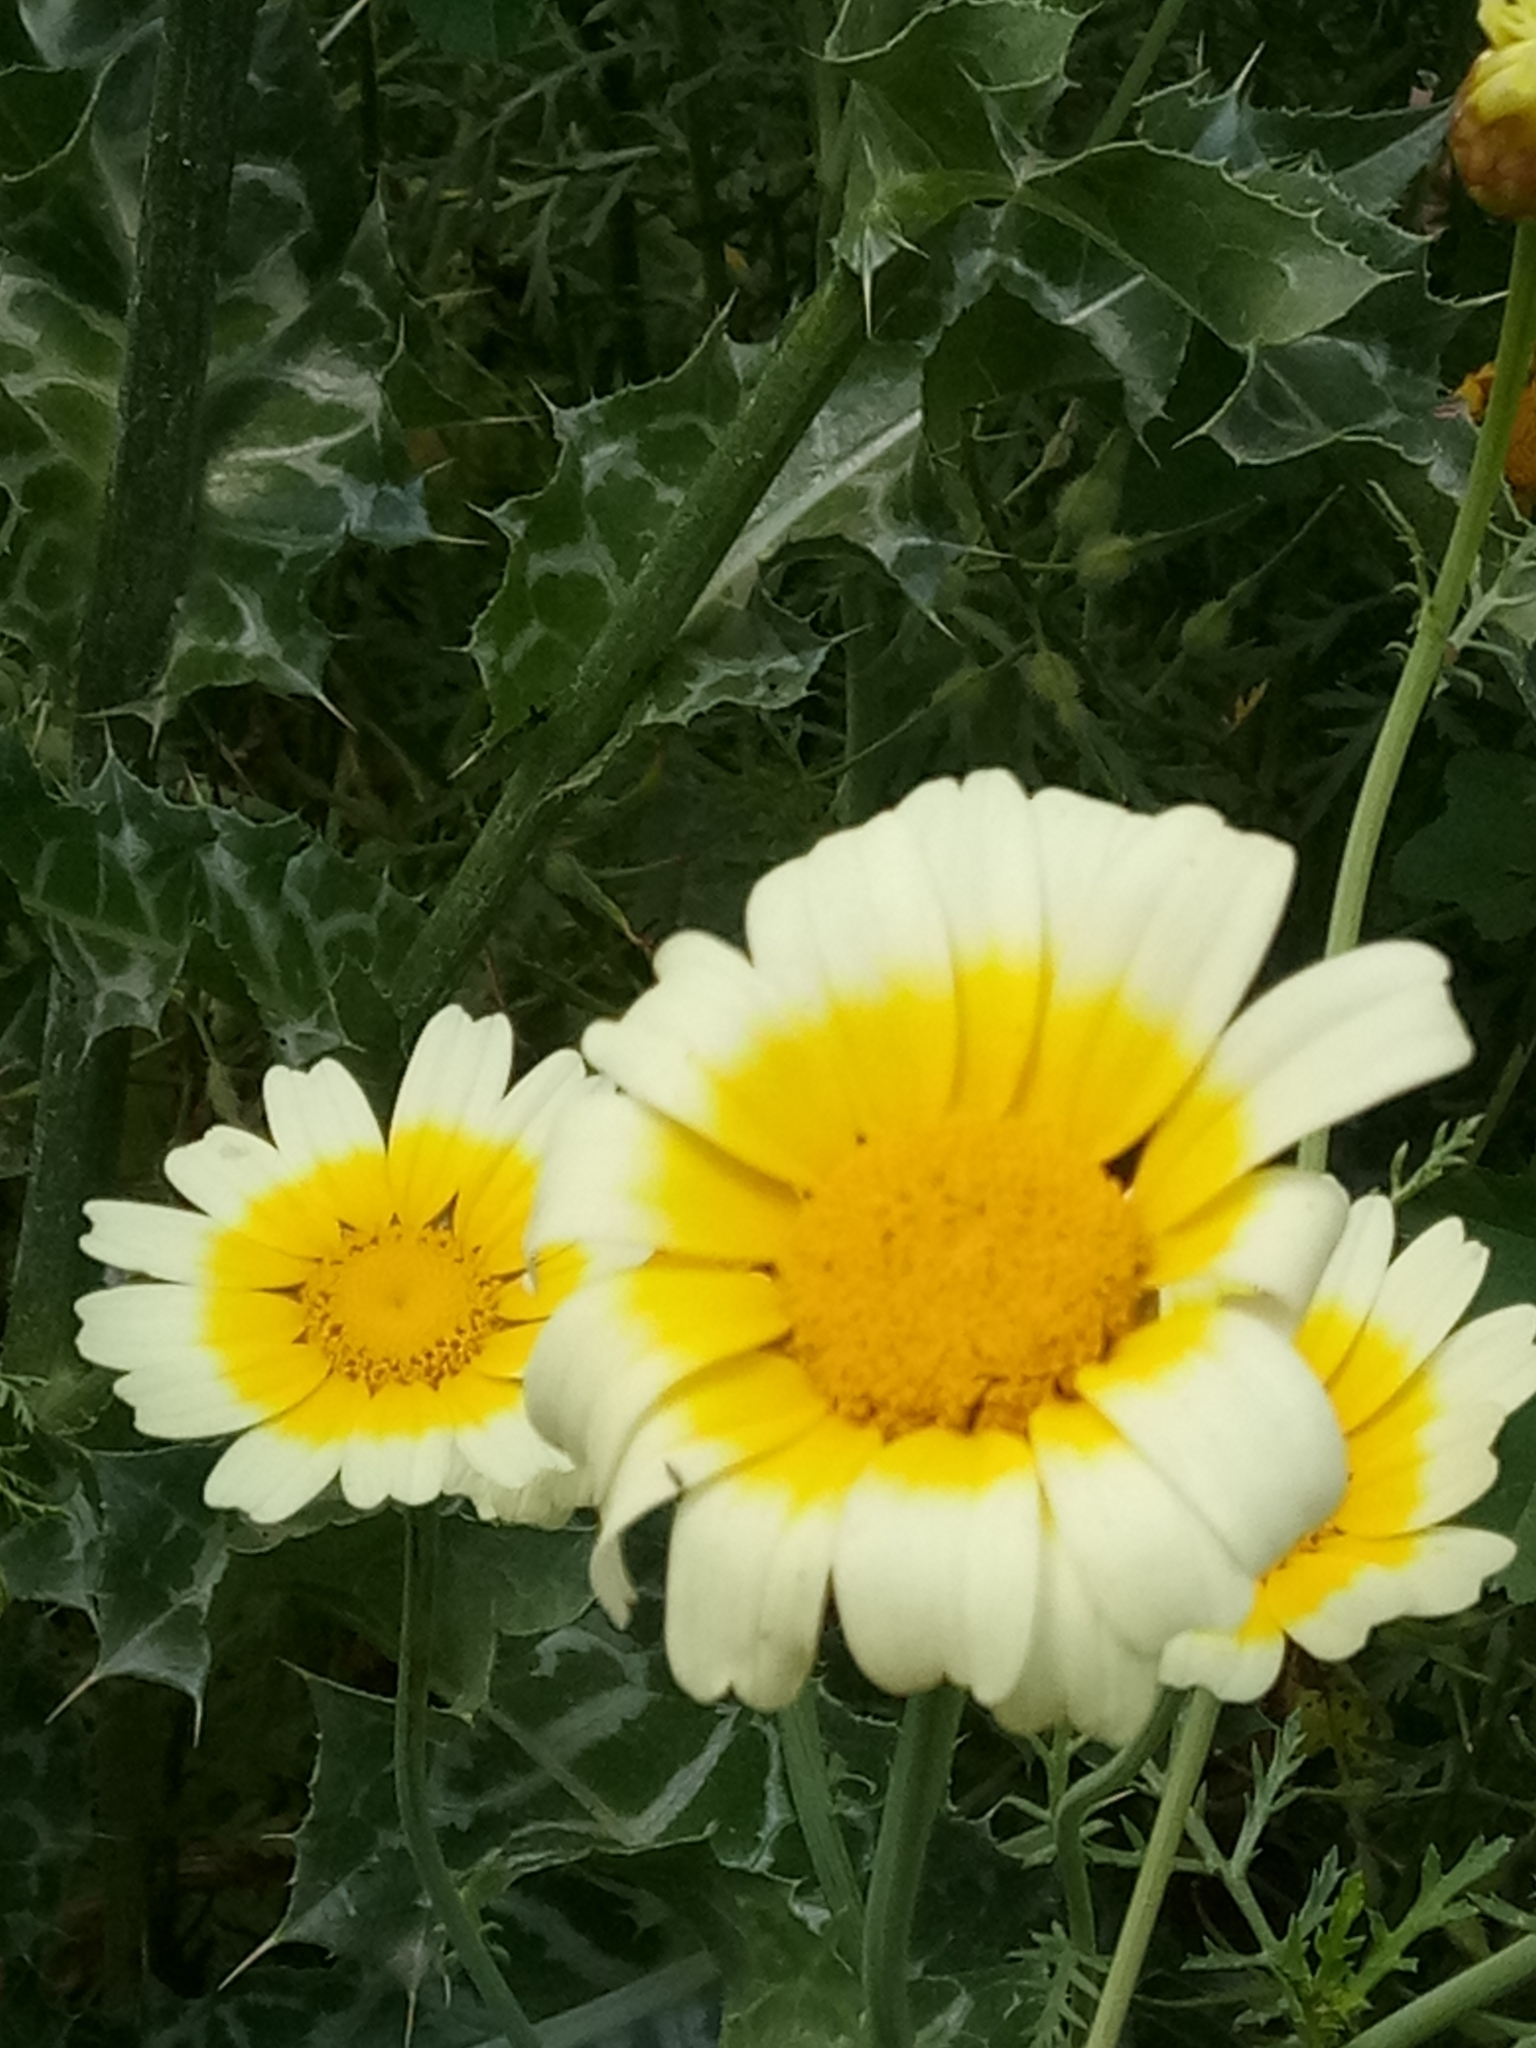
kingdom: Plantae
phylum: Tracheophyta
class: Magnoliopsida
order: Asterales
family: Asteraceae
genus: Glebionis
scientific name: Glebionis coronaria
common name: Crowndaisy
